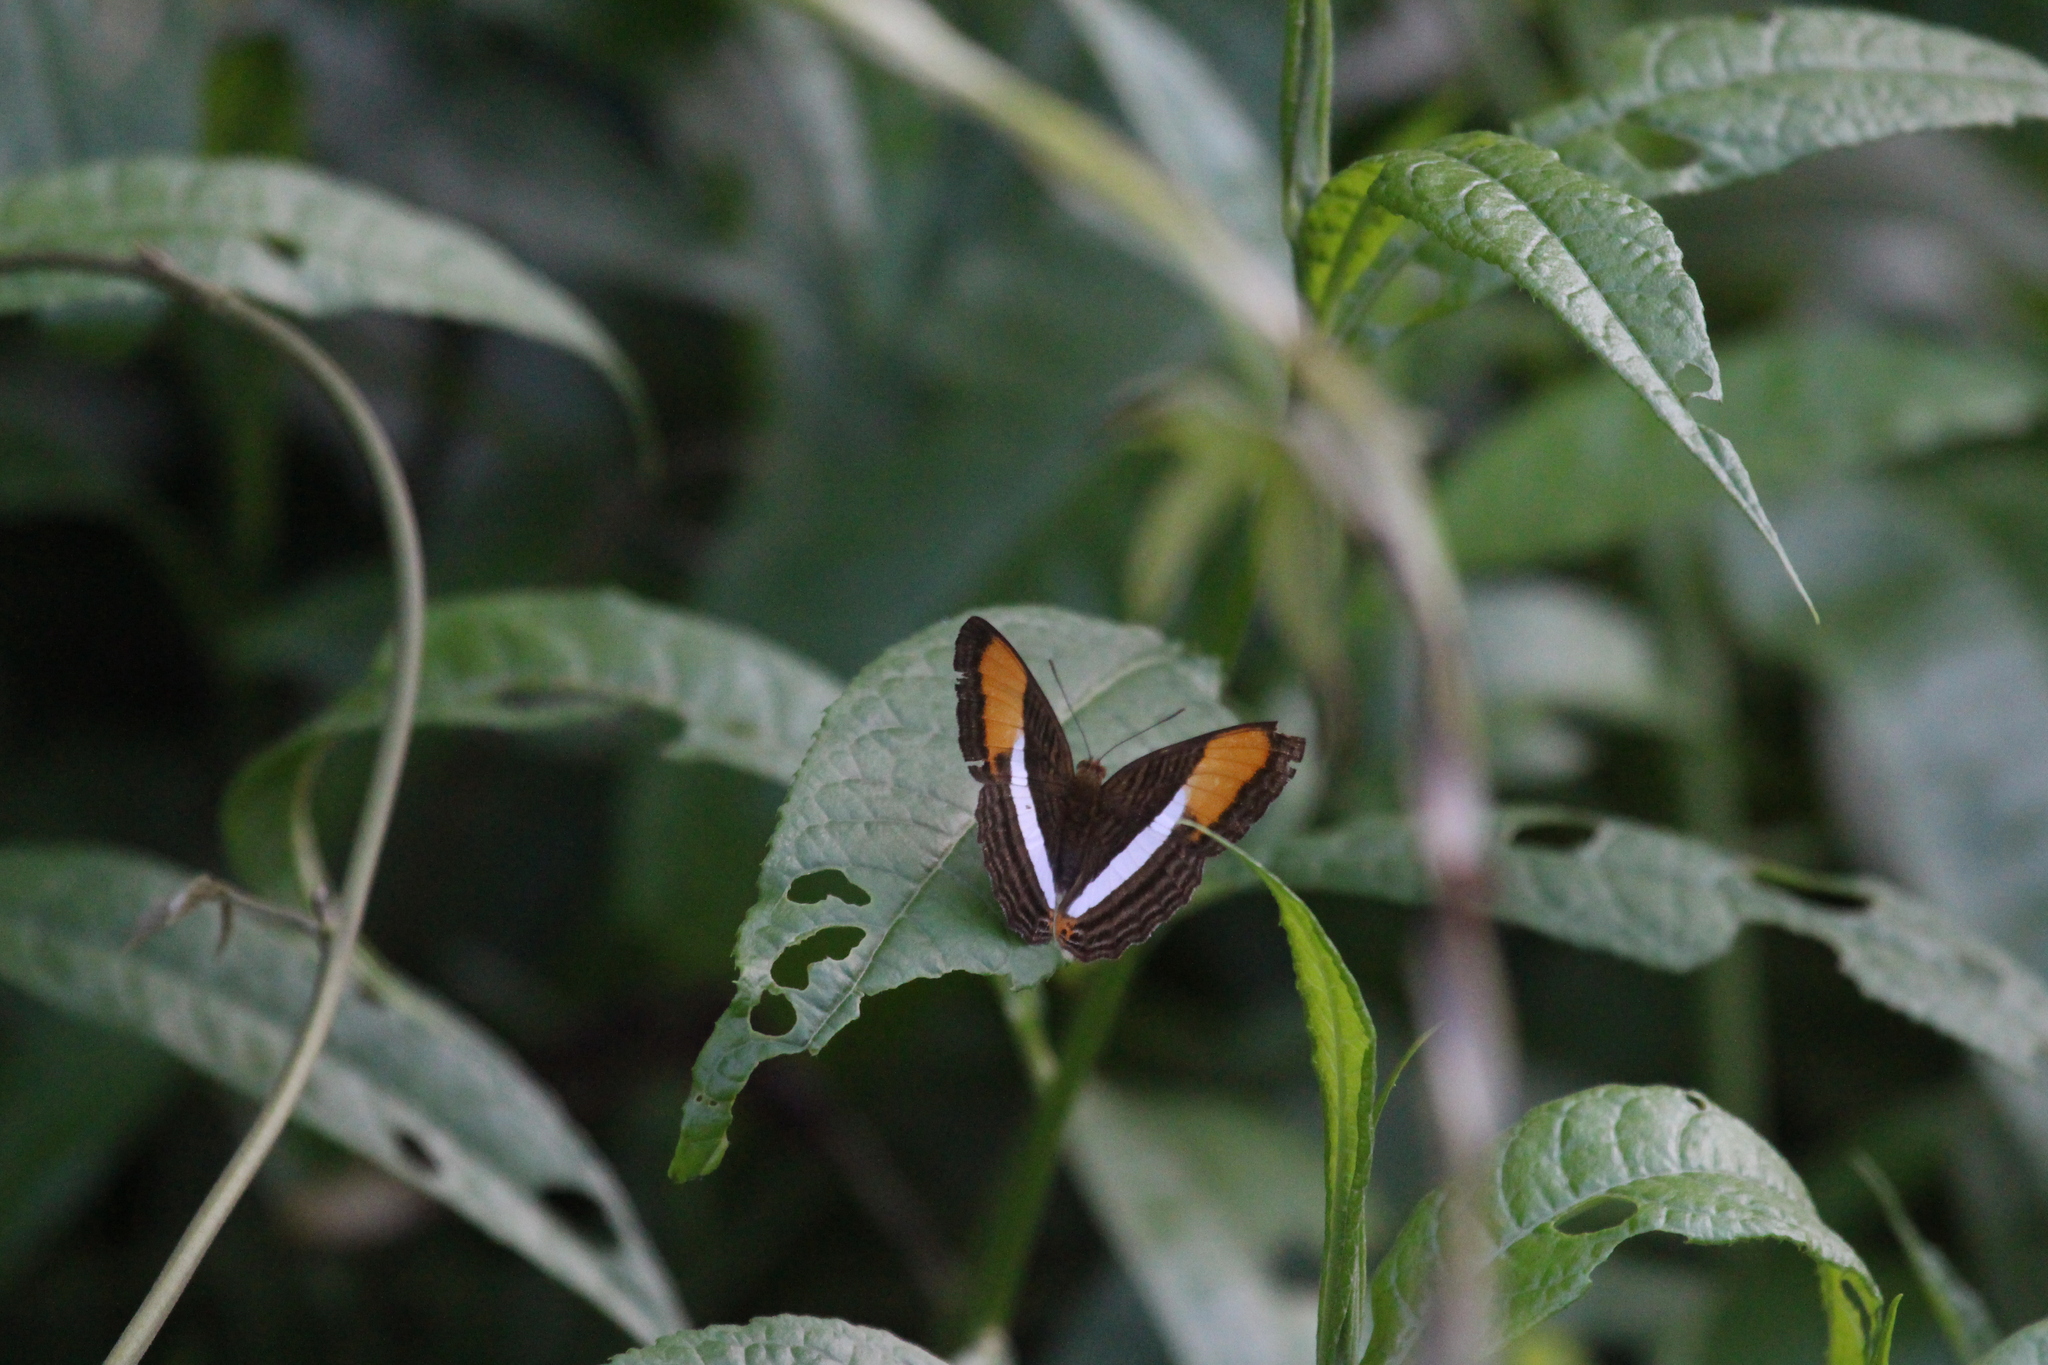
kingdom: Animalia
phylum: Arthropoda
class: Insecta
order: Lepidoptera
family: Nymphalidae
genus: Limenitis
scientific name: Limenitis cytherea
